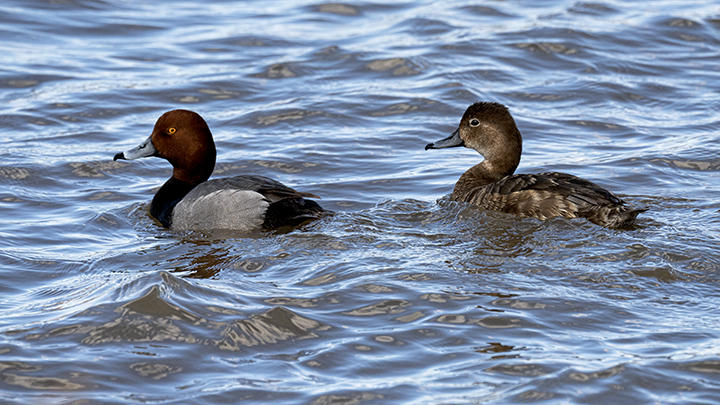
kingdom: Animalia
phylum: Chordata
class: Aves
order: Anseriformes
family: Anatidae
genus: Aythya
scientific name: Aythya americana
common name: Redhead
